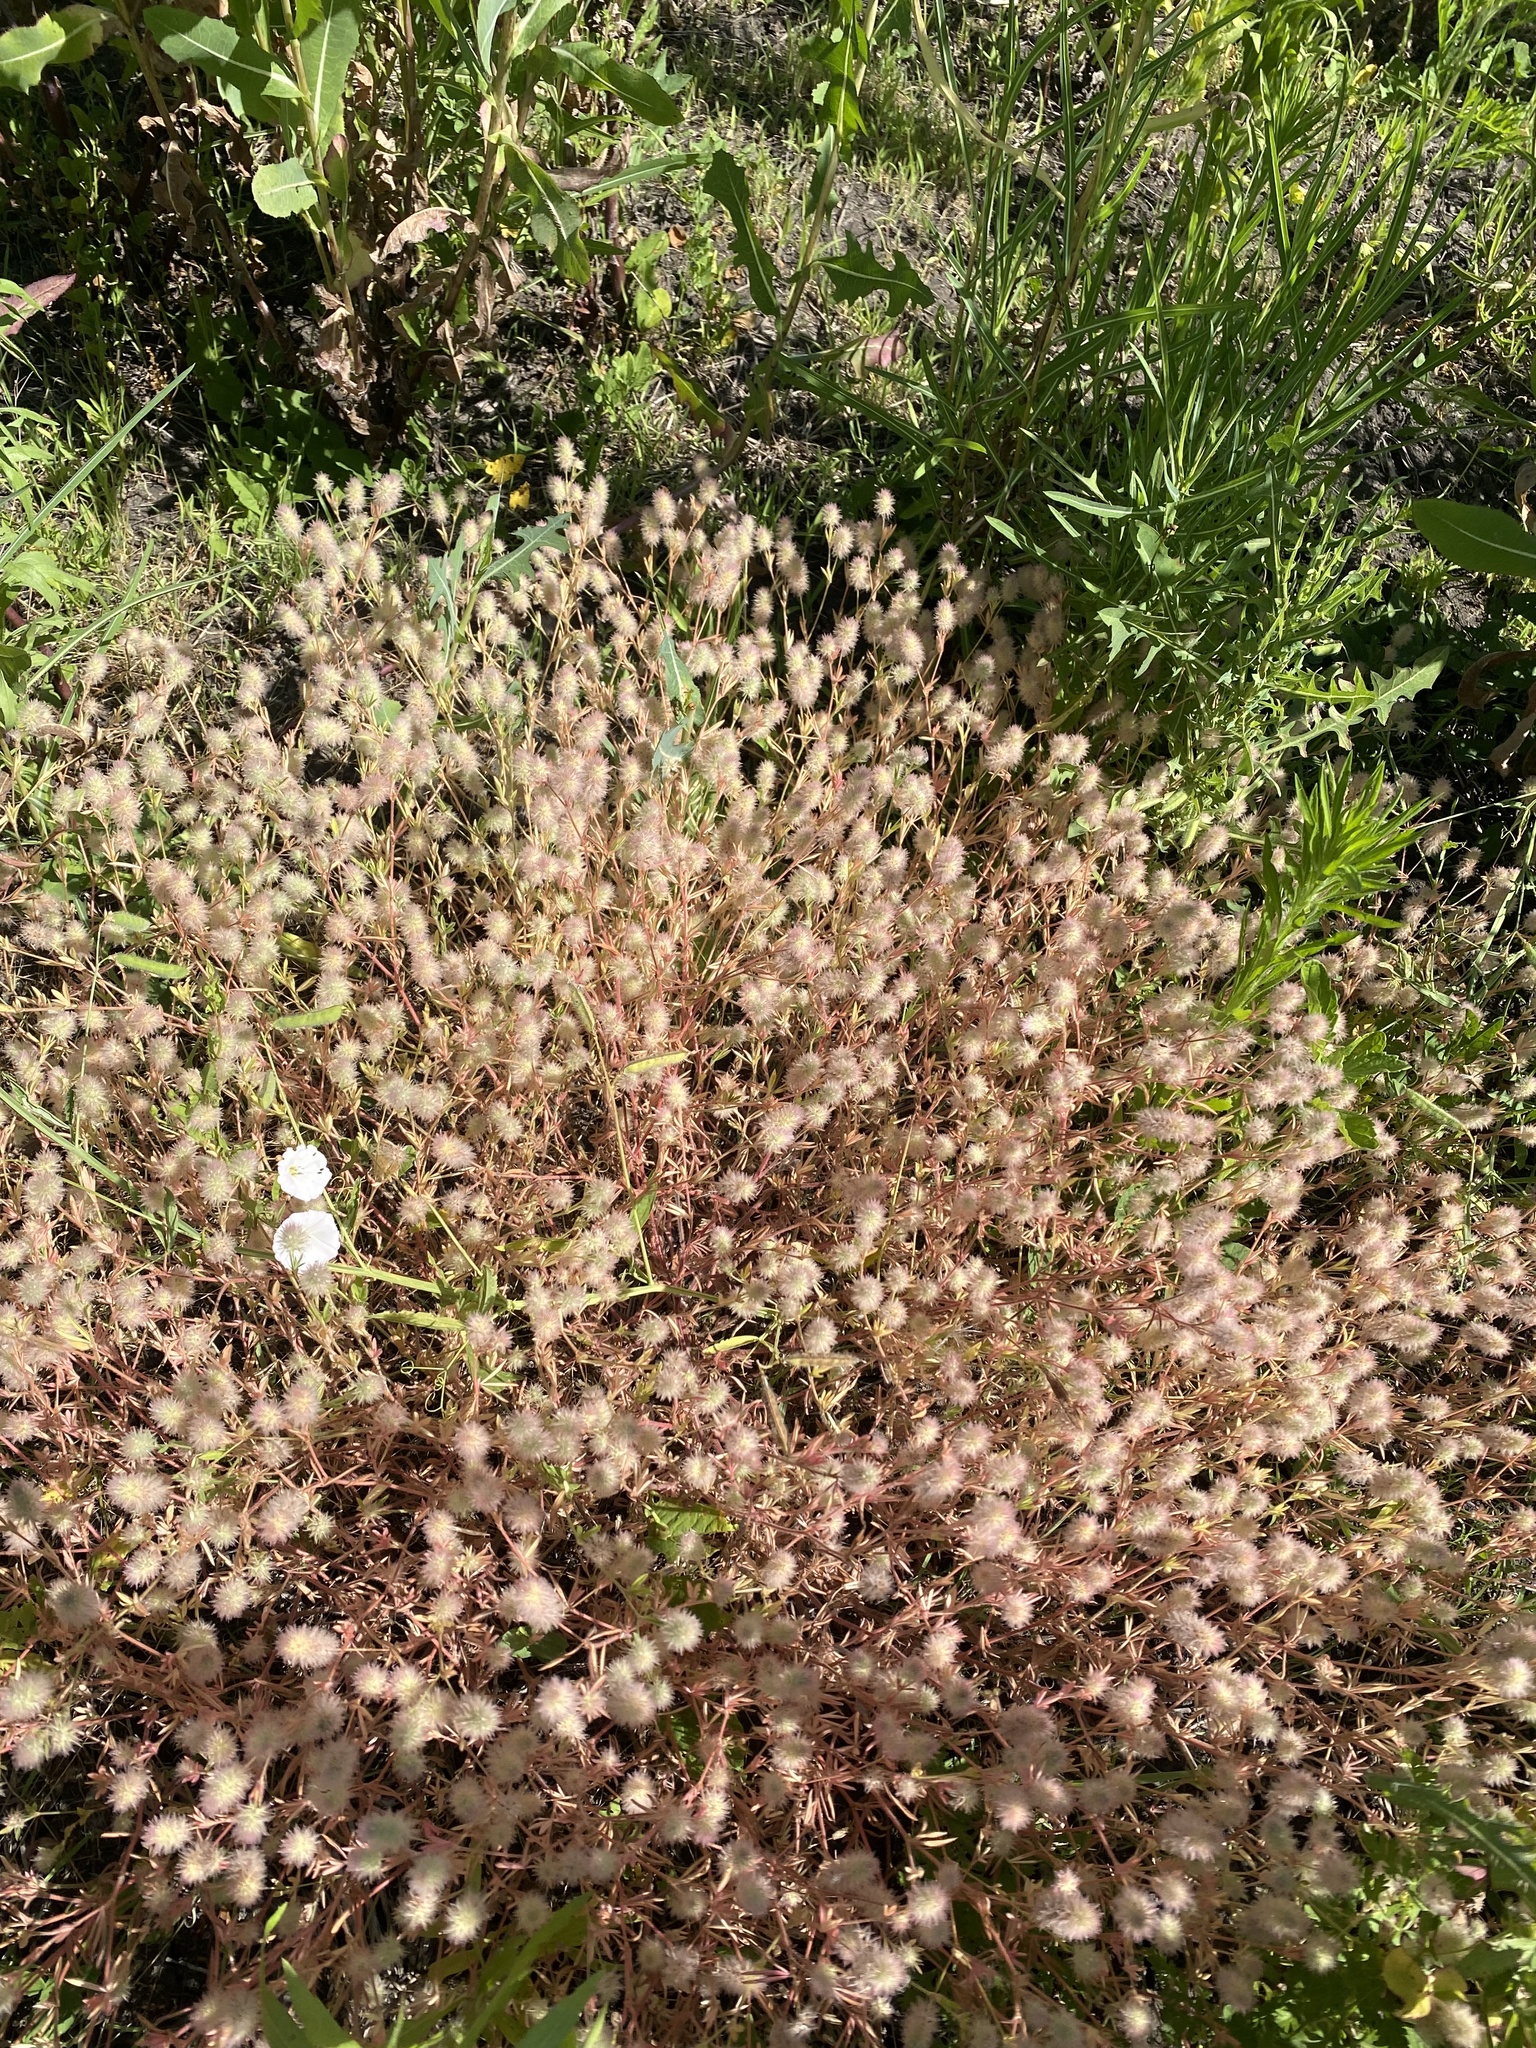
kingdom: Plantae
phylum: Tracheophyta
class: Magnoliopsida
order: Fabales
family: Fabaceae
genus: Trifolium
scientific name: Trifolium arvense
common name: Hare's-foot clover
